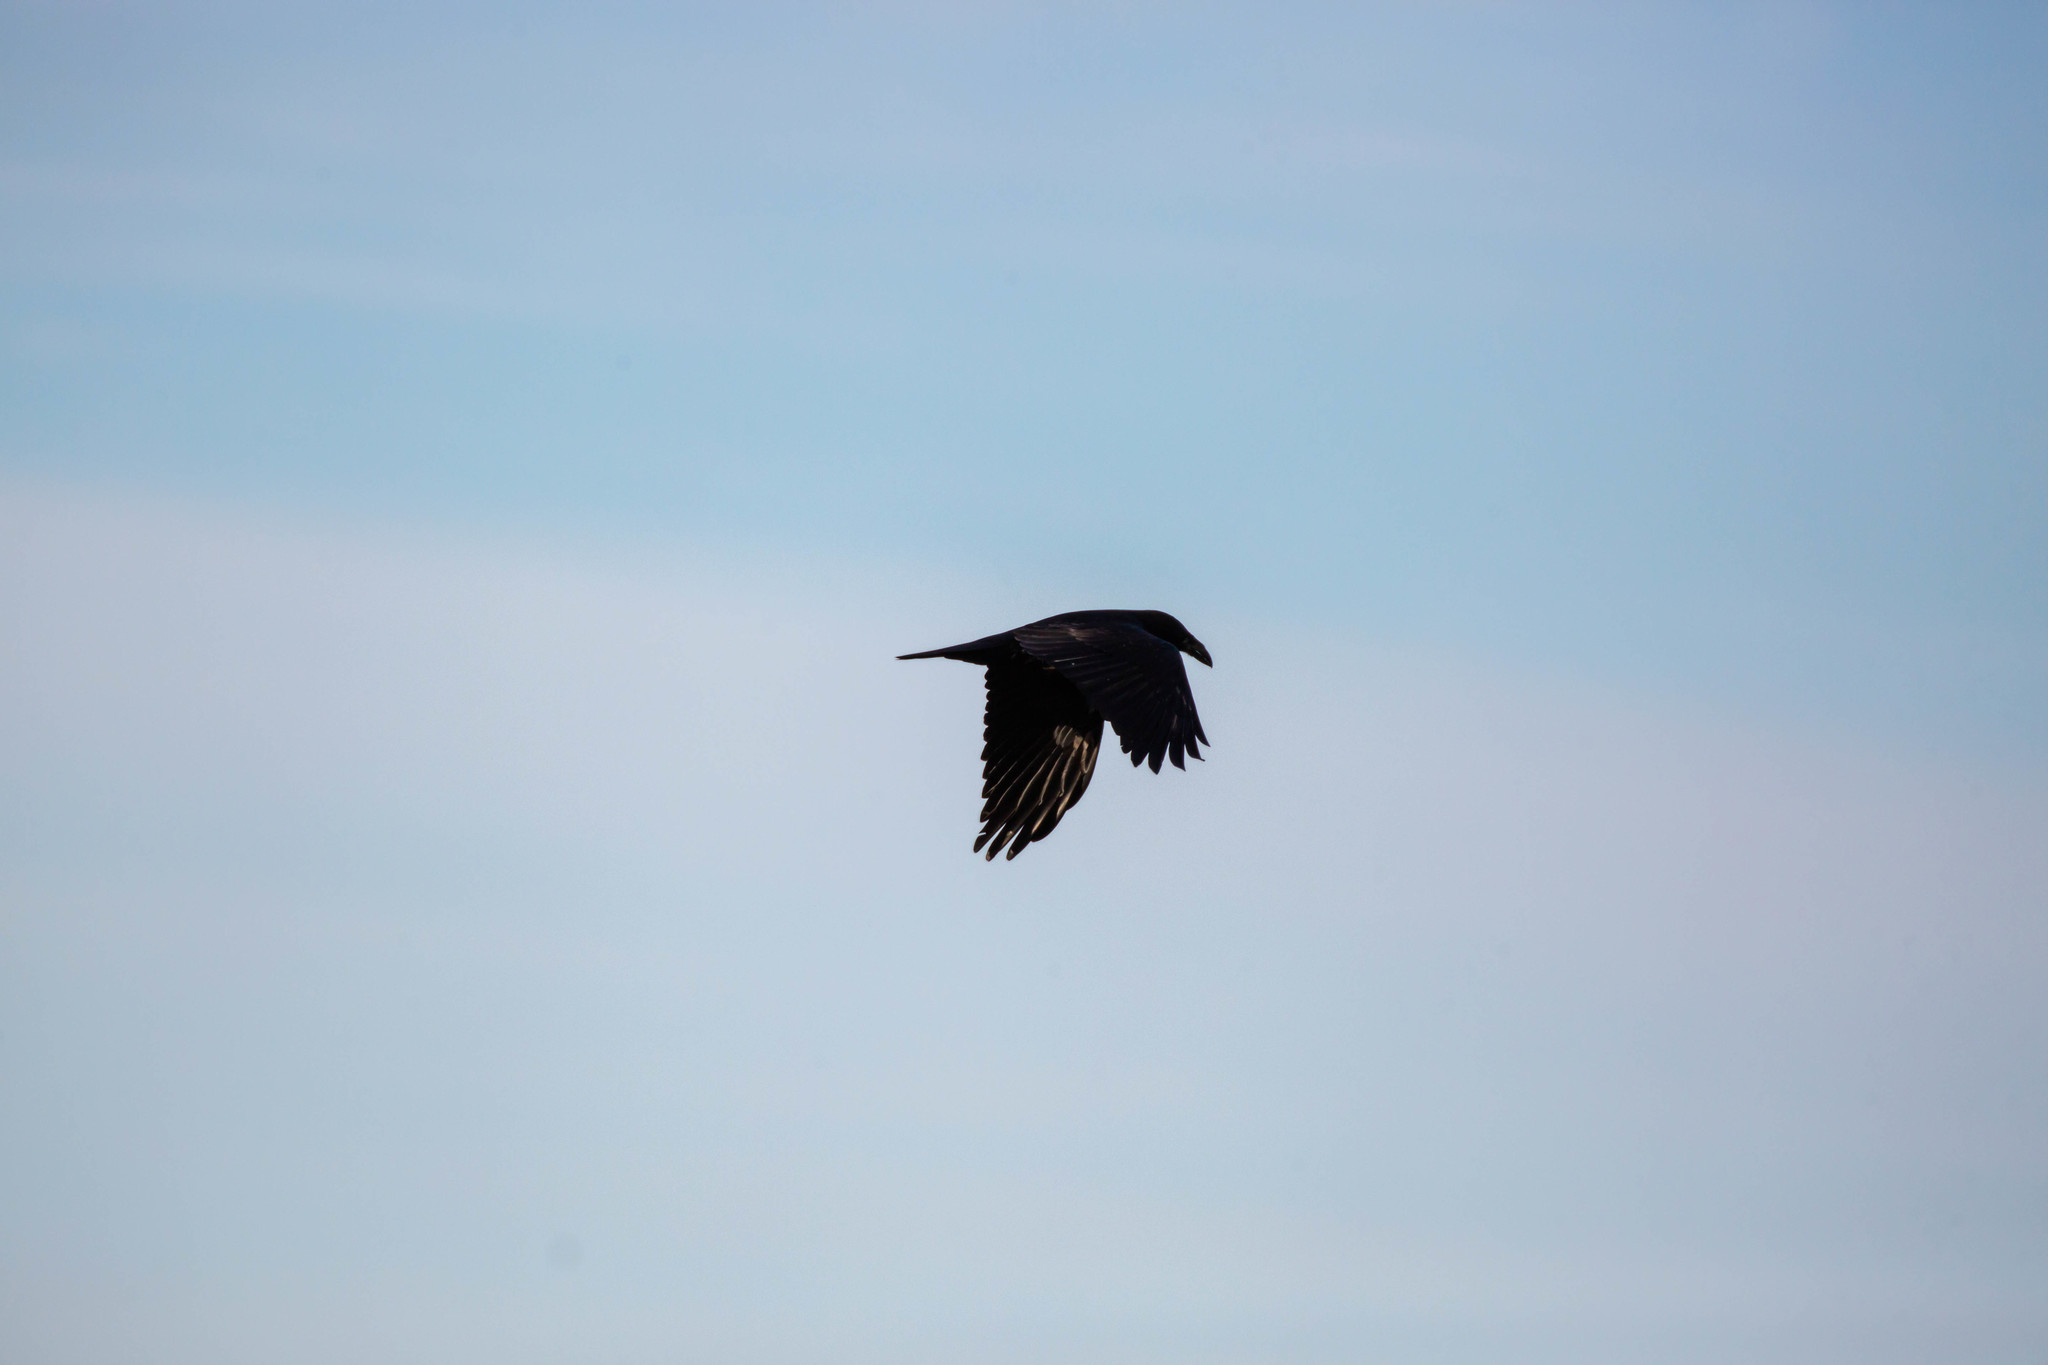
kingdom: Animalia
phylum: Chordata
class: Aves
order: Passeriformes
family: Corvidae
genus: Corvus
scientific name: Corvus corax
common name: Common raven
